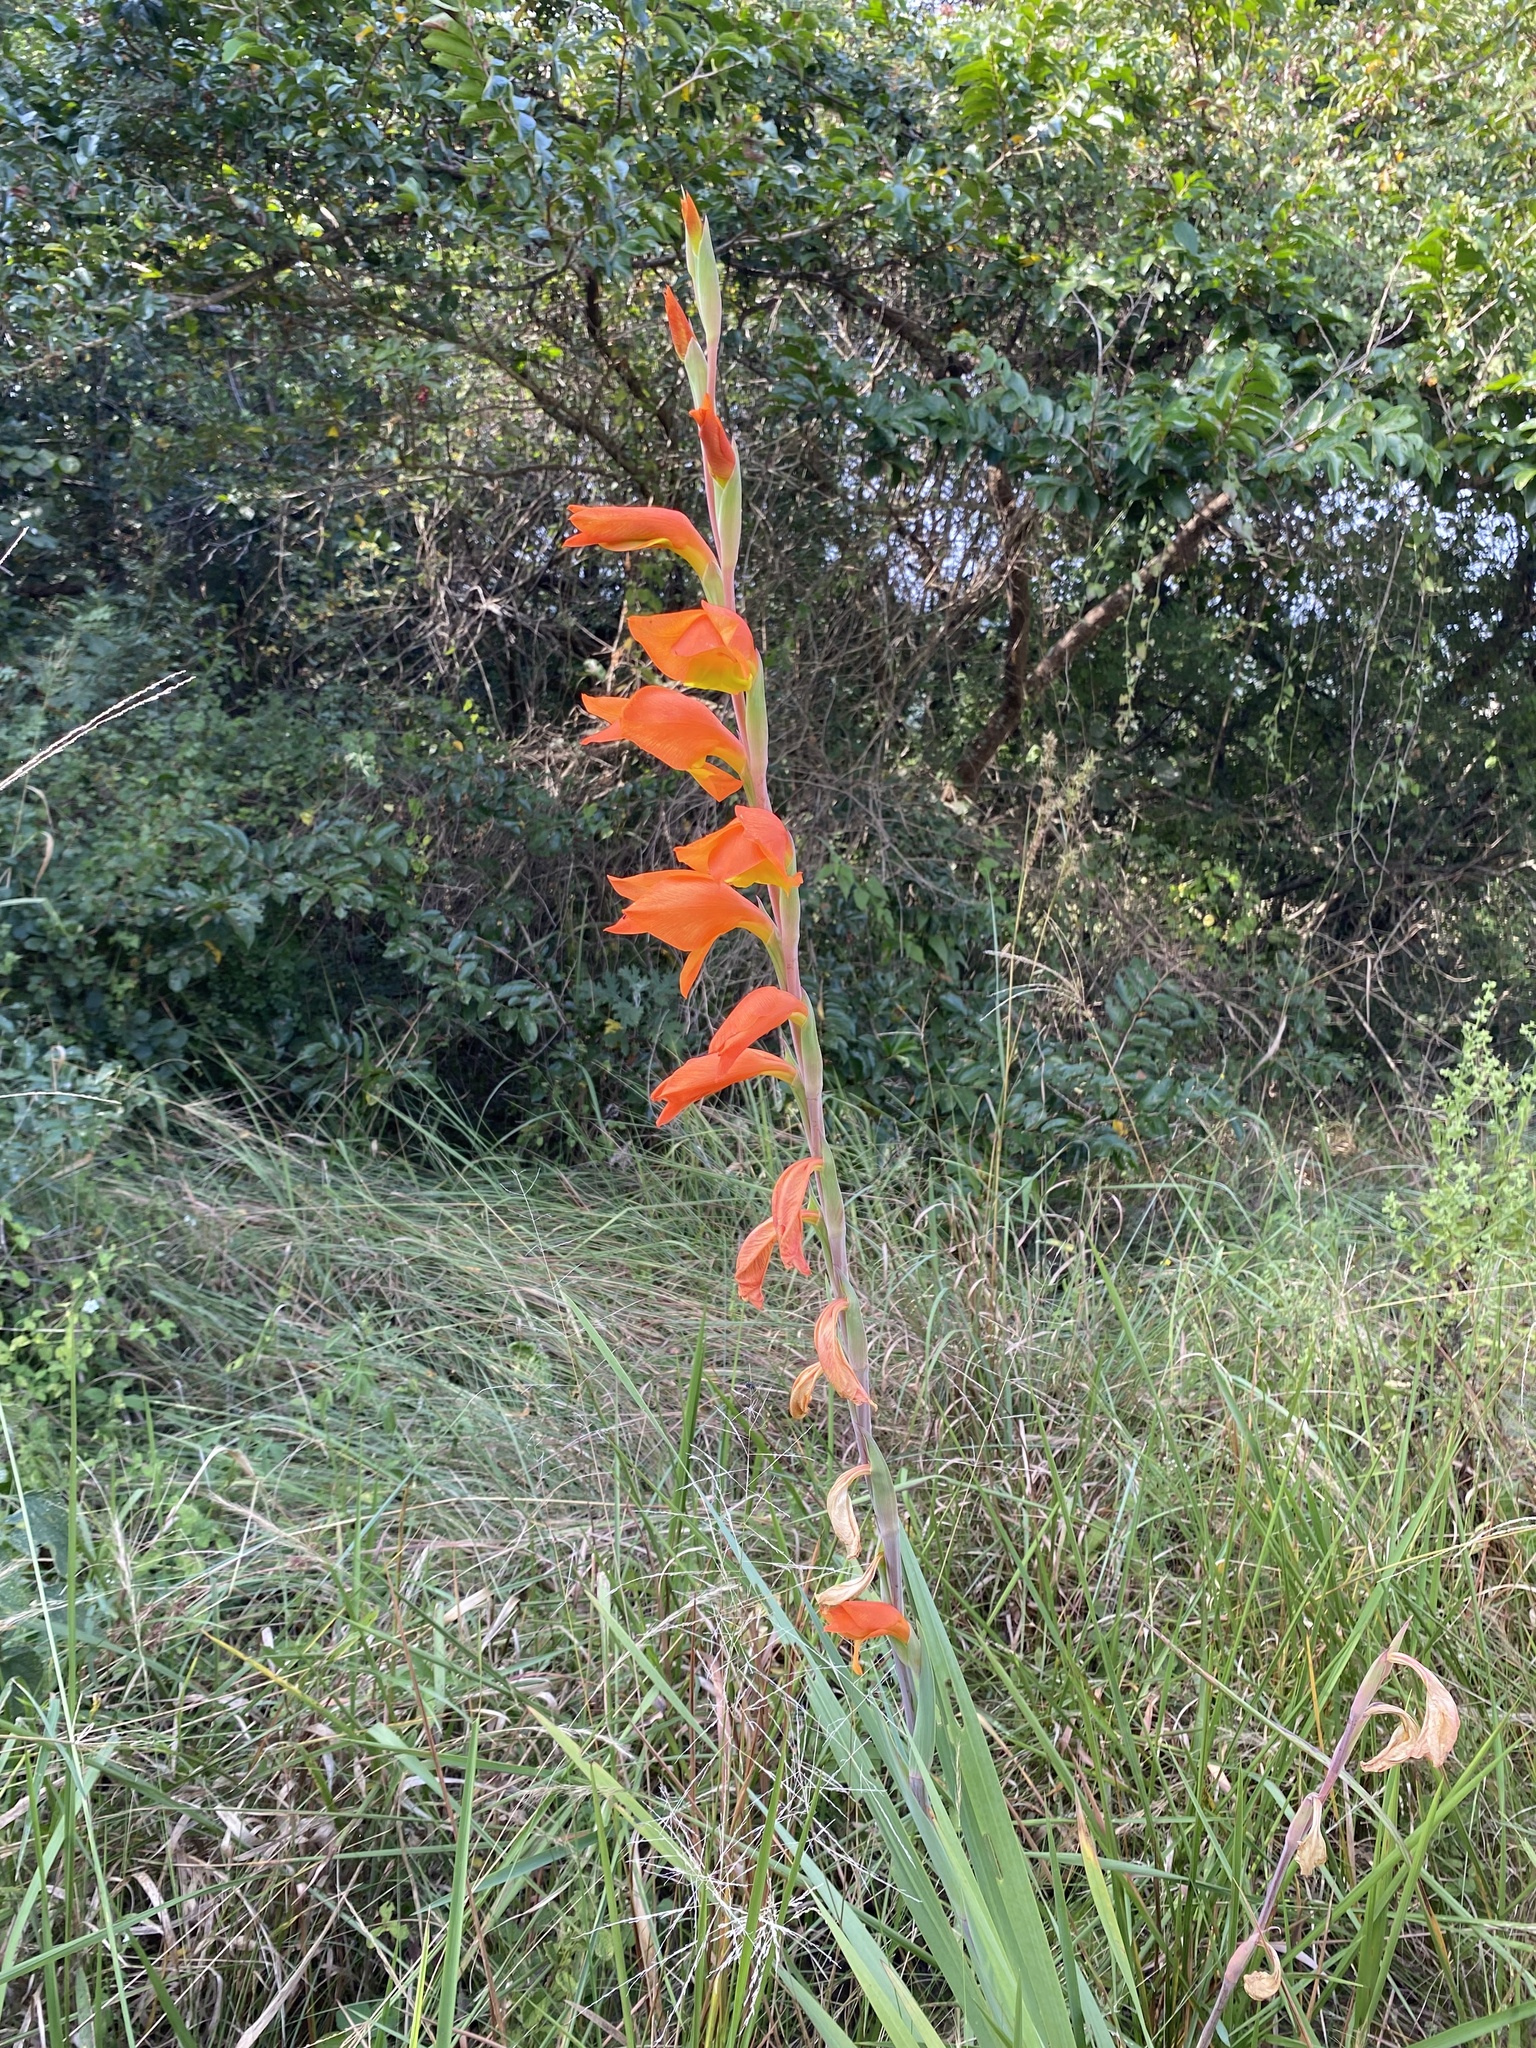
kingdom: Plantae
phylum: Tracheophyta
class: Liliopsida
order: Asparagales
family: Iridaceae
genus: Gladiolus
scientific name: Gladiolus dalenii
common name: Cornflag
